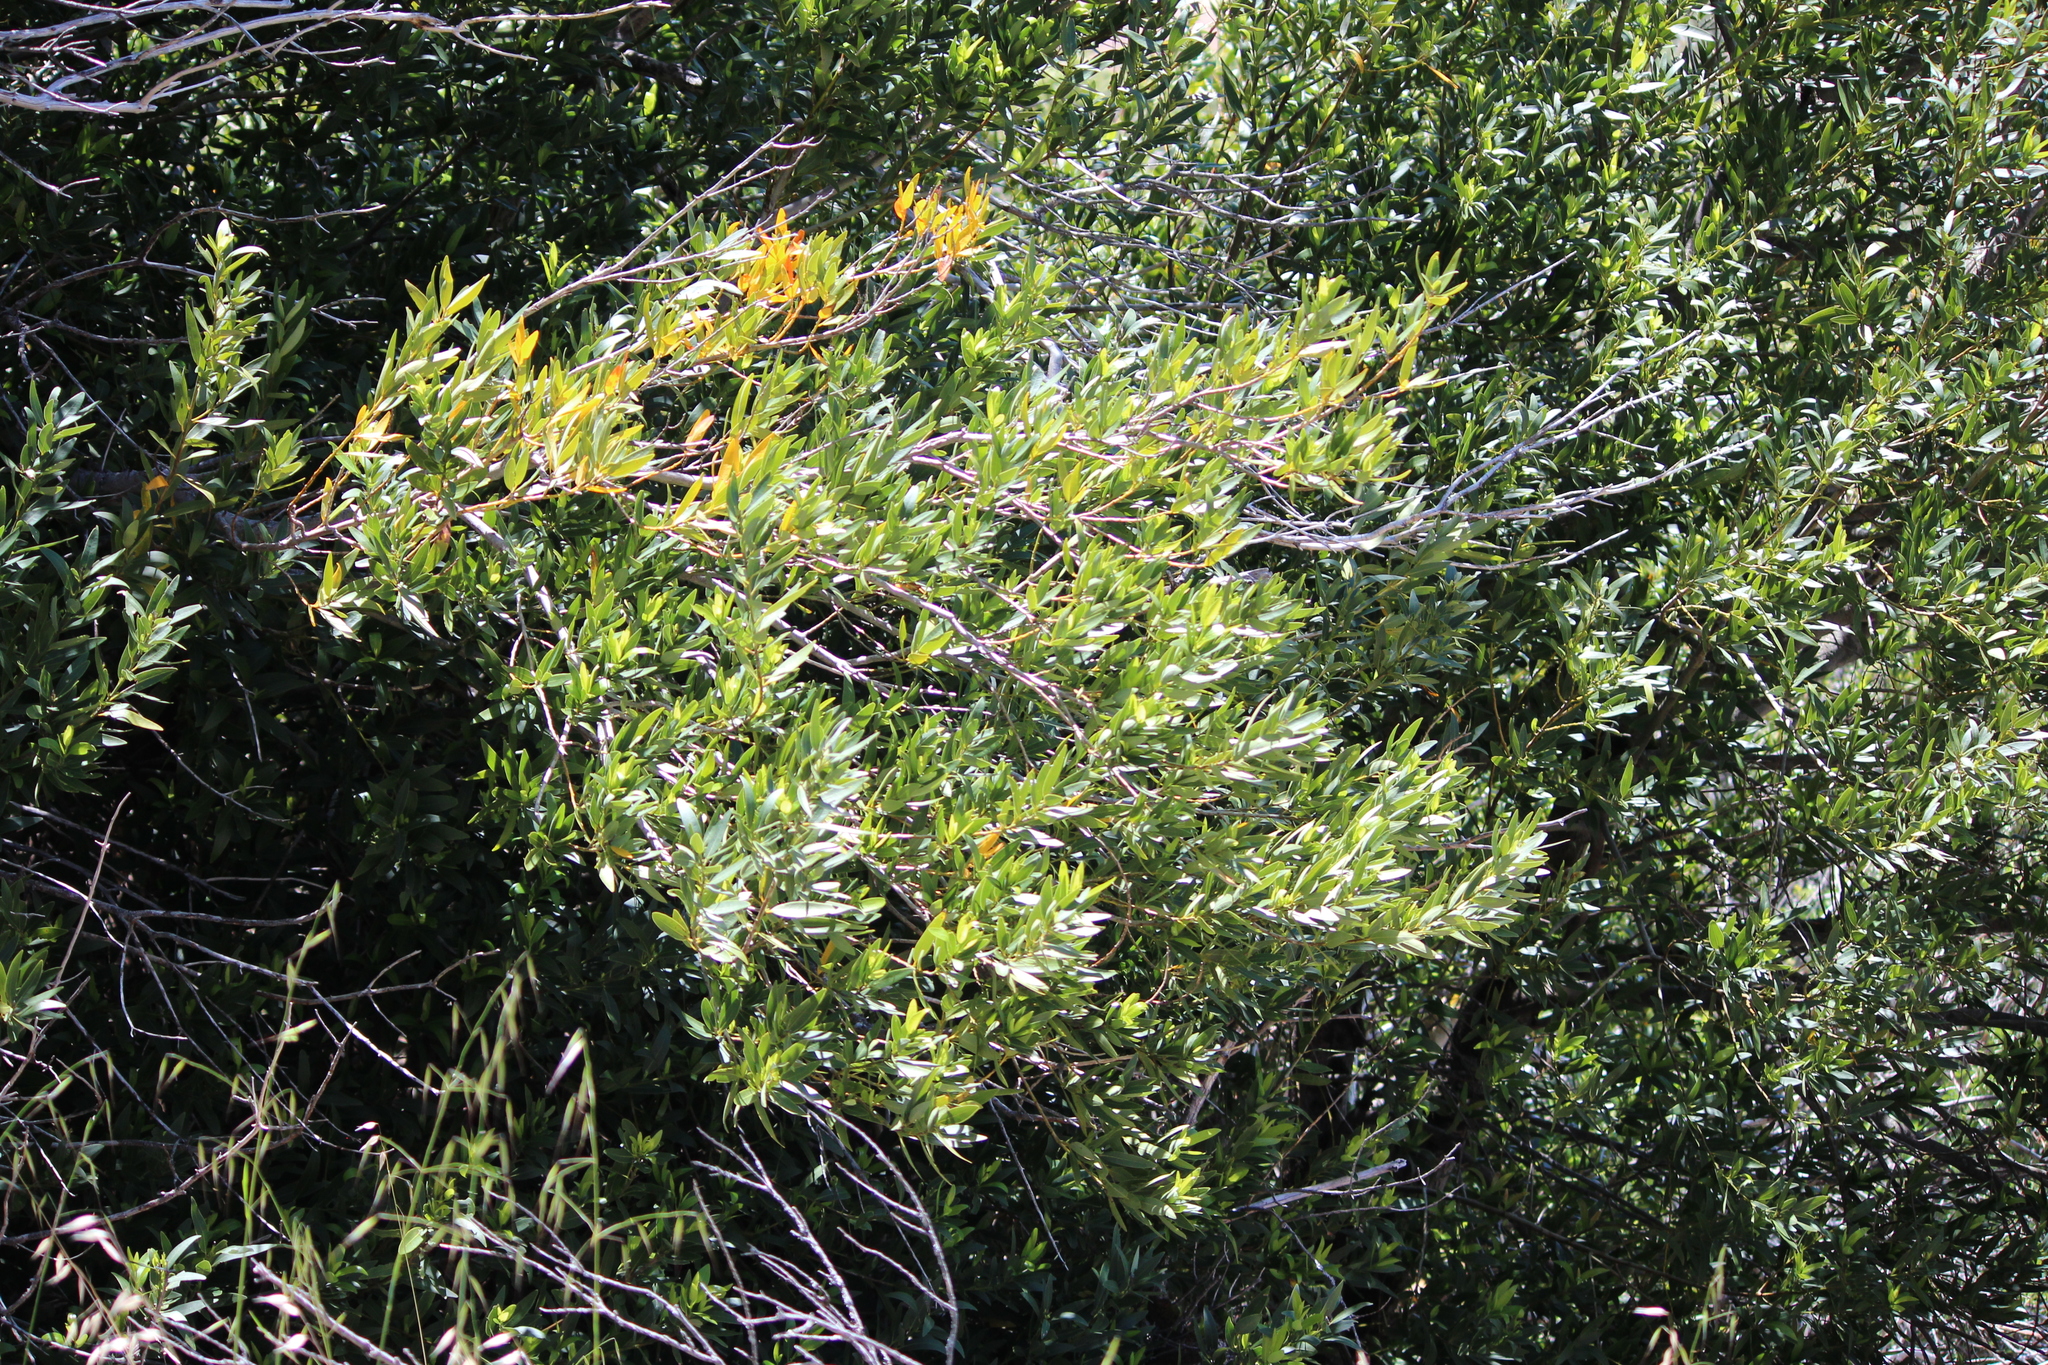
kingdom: Plantae
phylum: Tracheophyta
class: Magnoliopsida
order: Laurales
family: Lauraceae
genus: Umbellularia
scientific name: Umbellularia californica
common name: California bay
